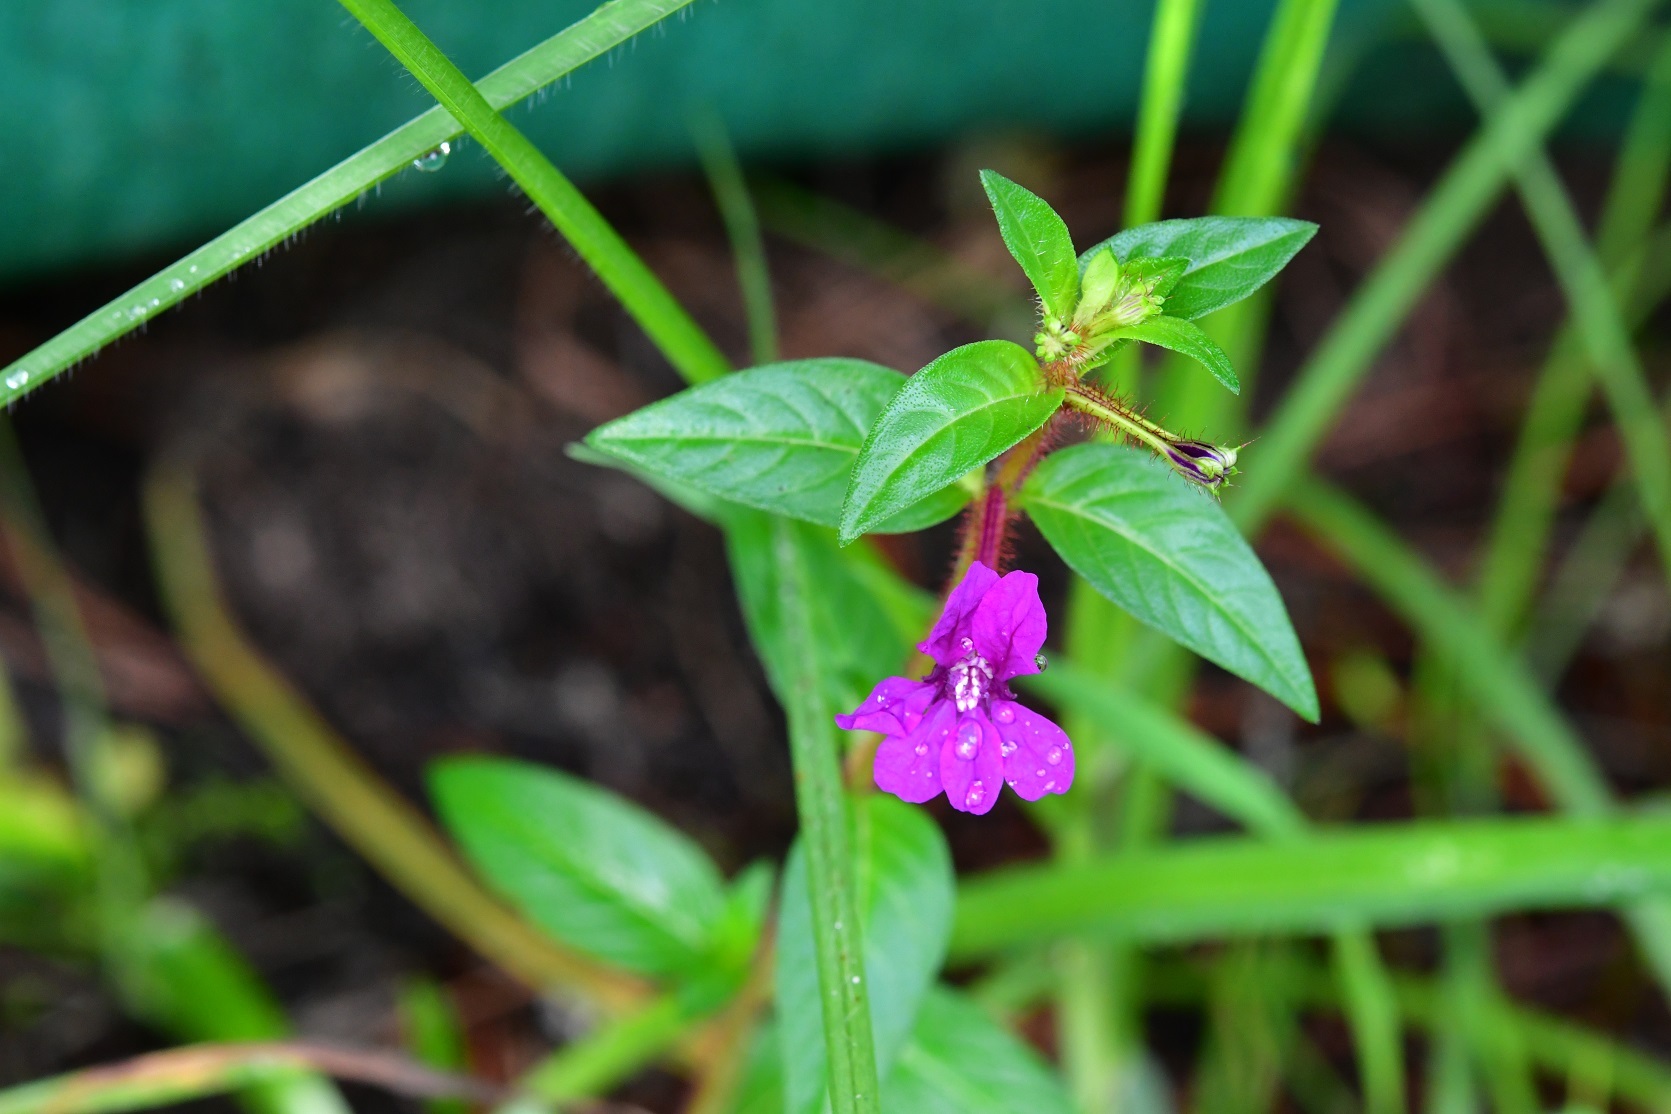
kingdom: Plantae
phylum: Tracheophyta
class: Magnoliopsida
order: Myrtales
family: Lythraceae
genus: Cuphea
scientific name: Cuphea aequipetala
